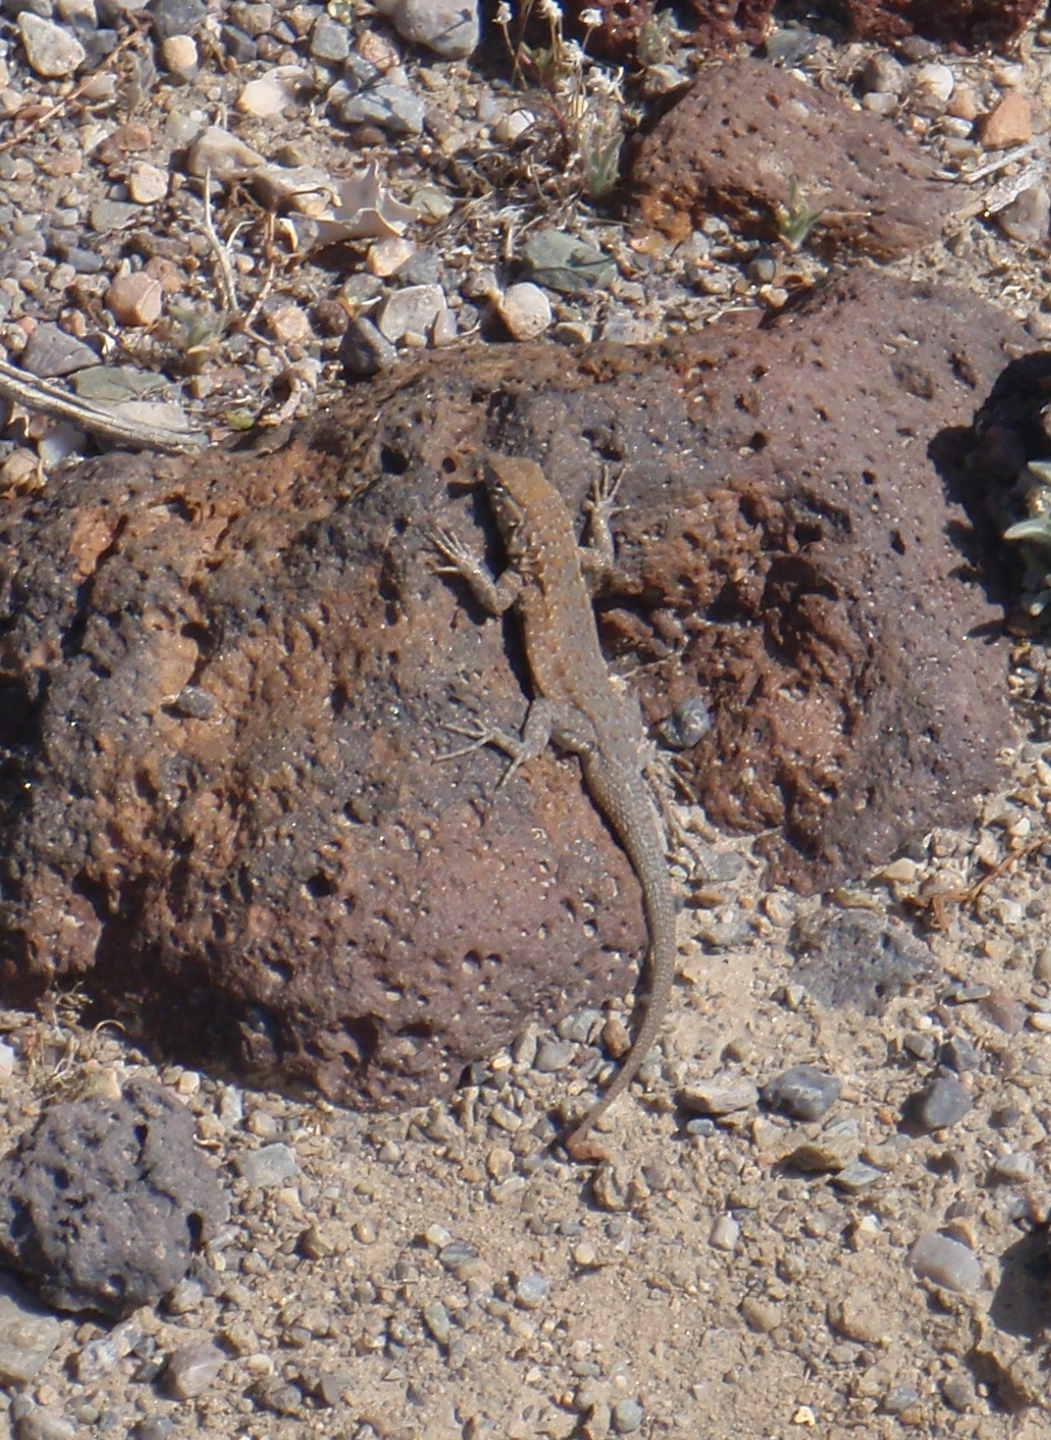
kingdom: Animalia
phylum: Chordata
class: Squamata
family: Phrynosomatidae
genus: Uta
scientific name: Uta stansburiana
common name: Side-blotched lizard
